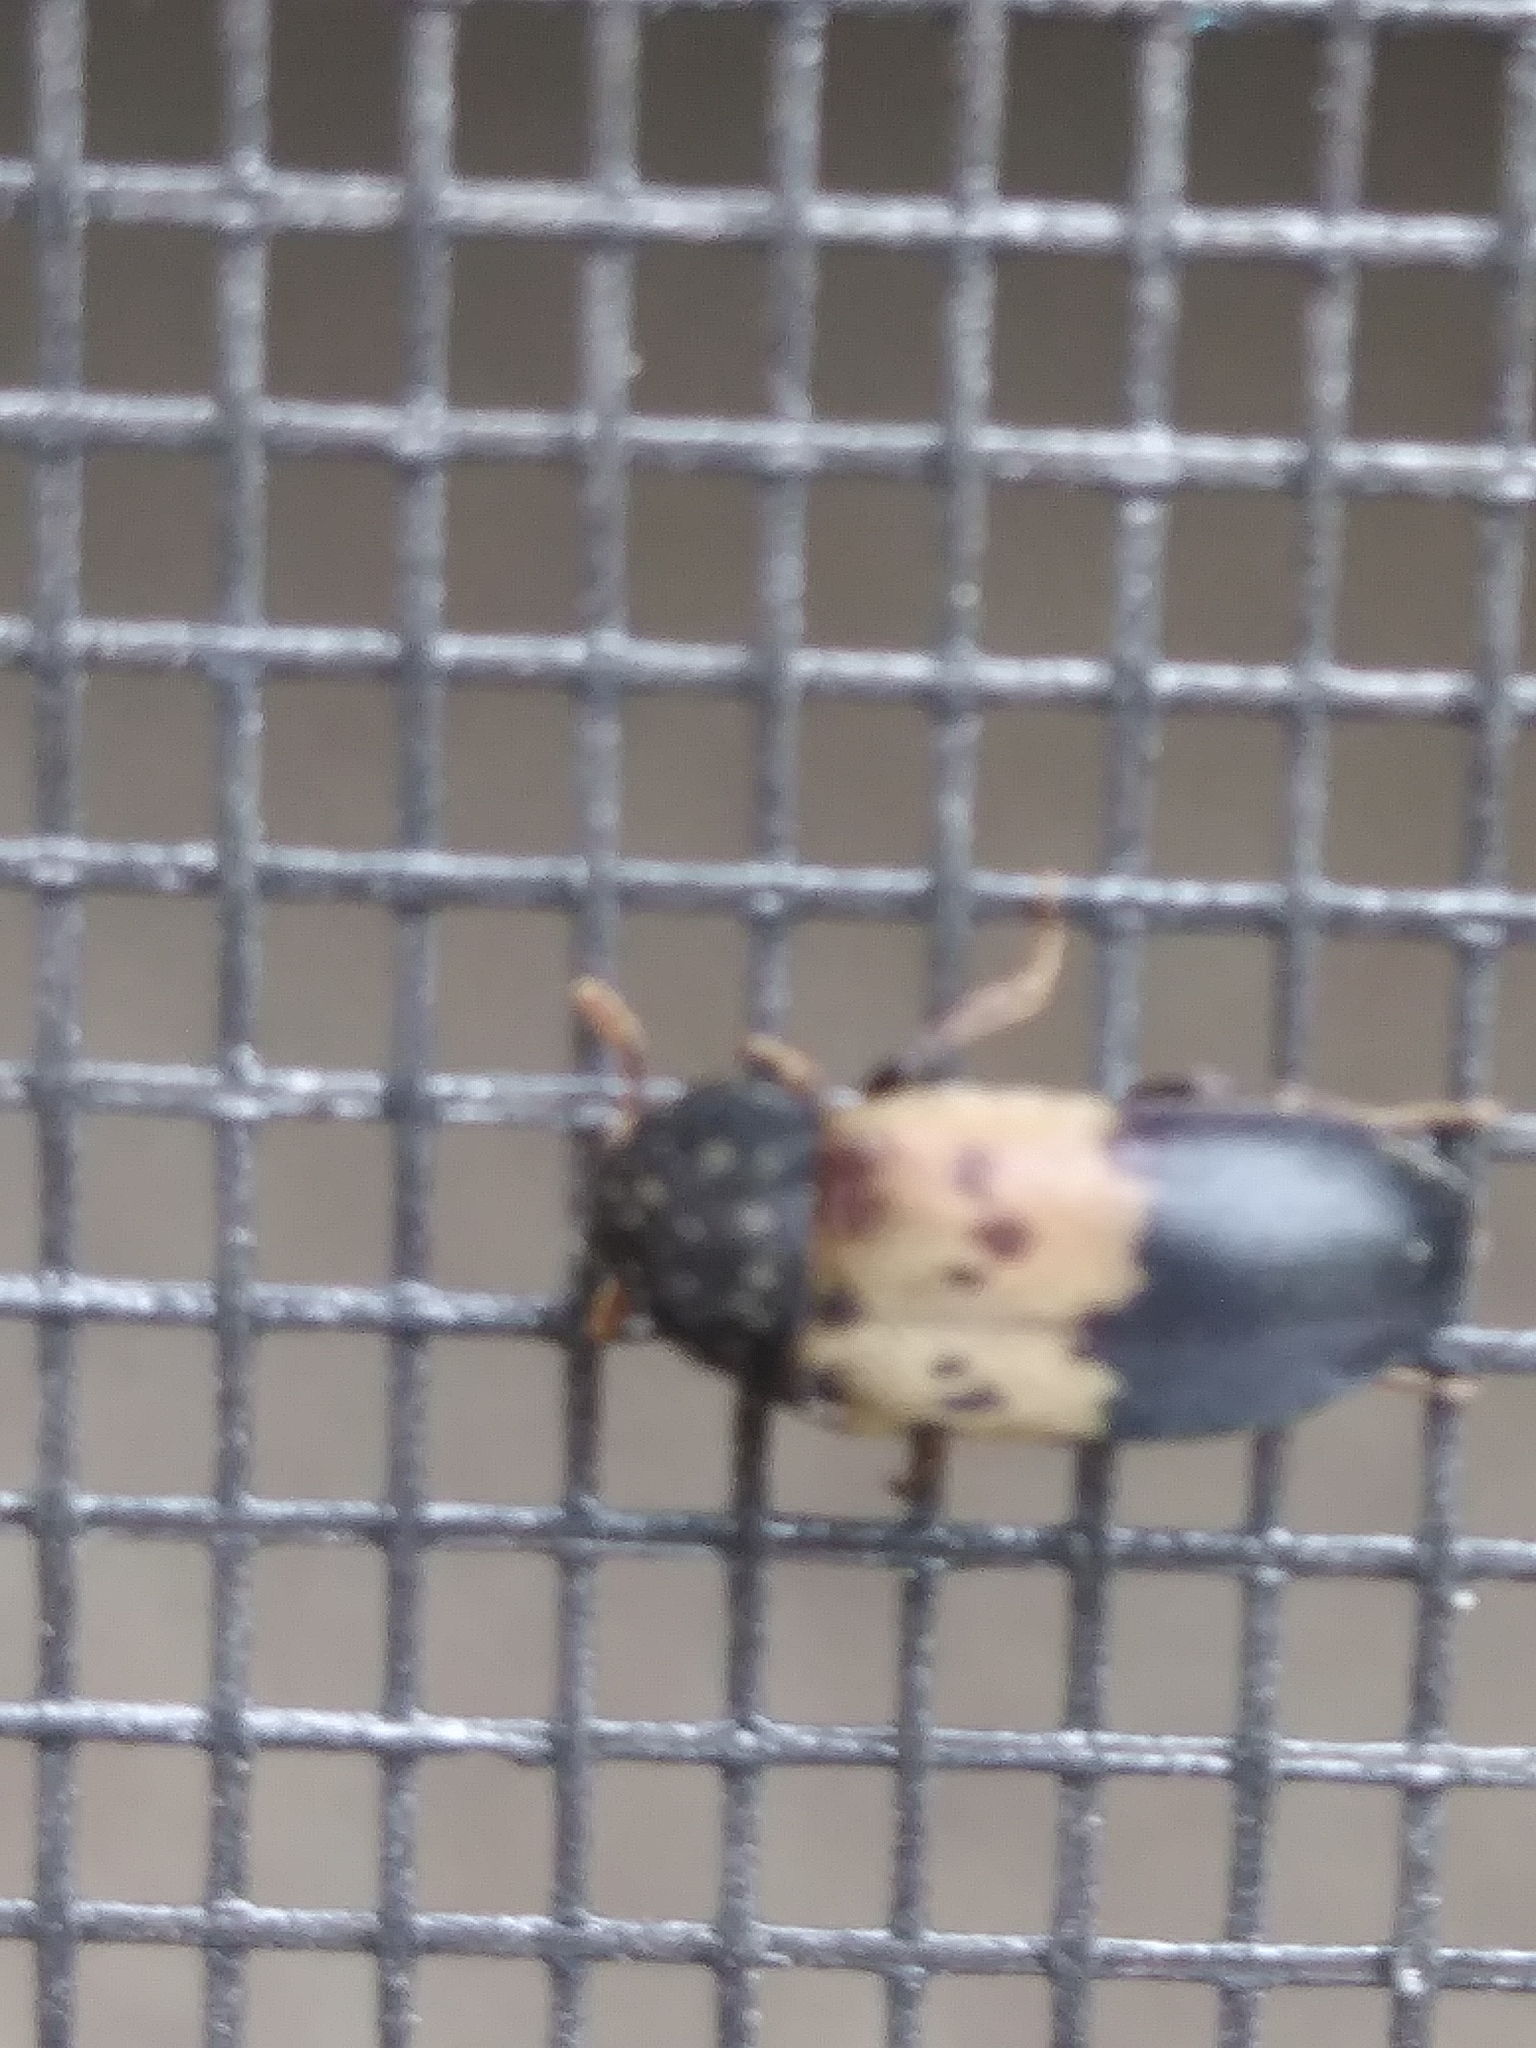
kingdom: Animalia
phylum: Arthropoda
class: Insecta
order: Coleoptera
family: Dermestidae
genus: Dermestes
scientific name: Dermestes lardarius
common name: Larder beetle
